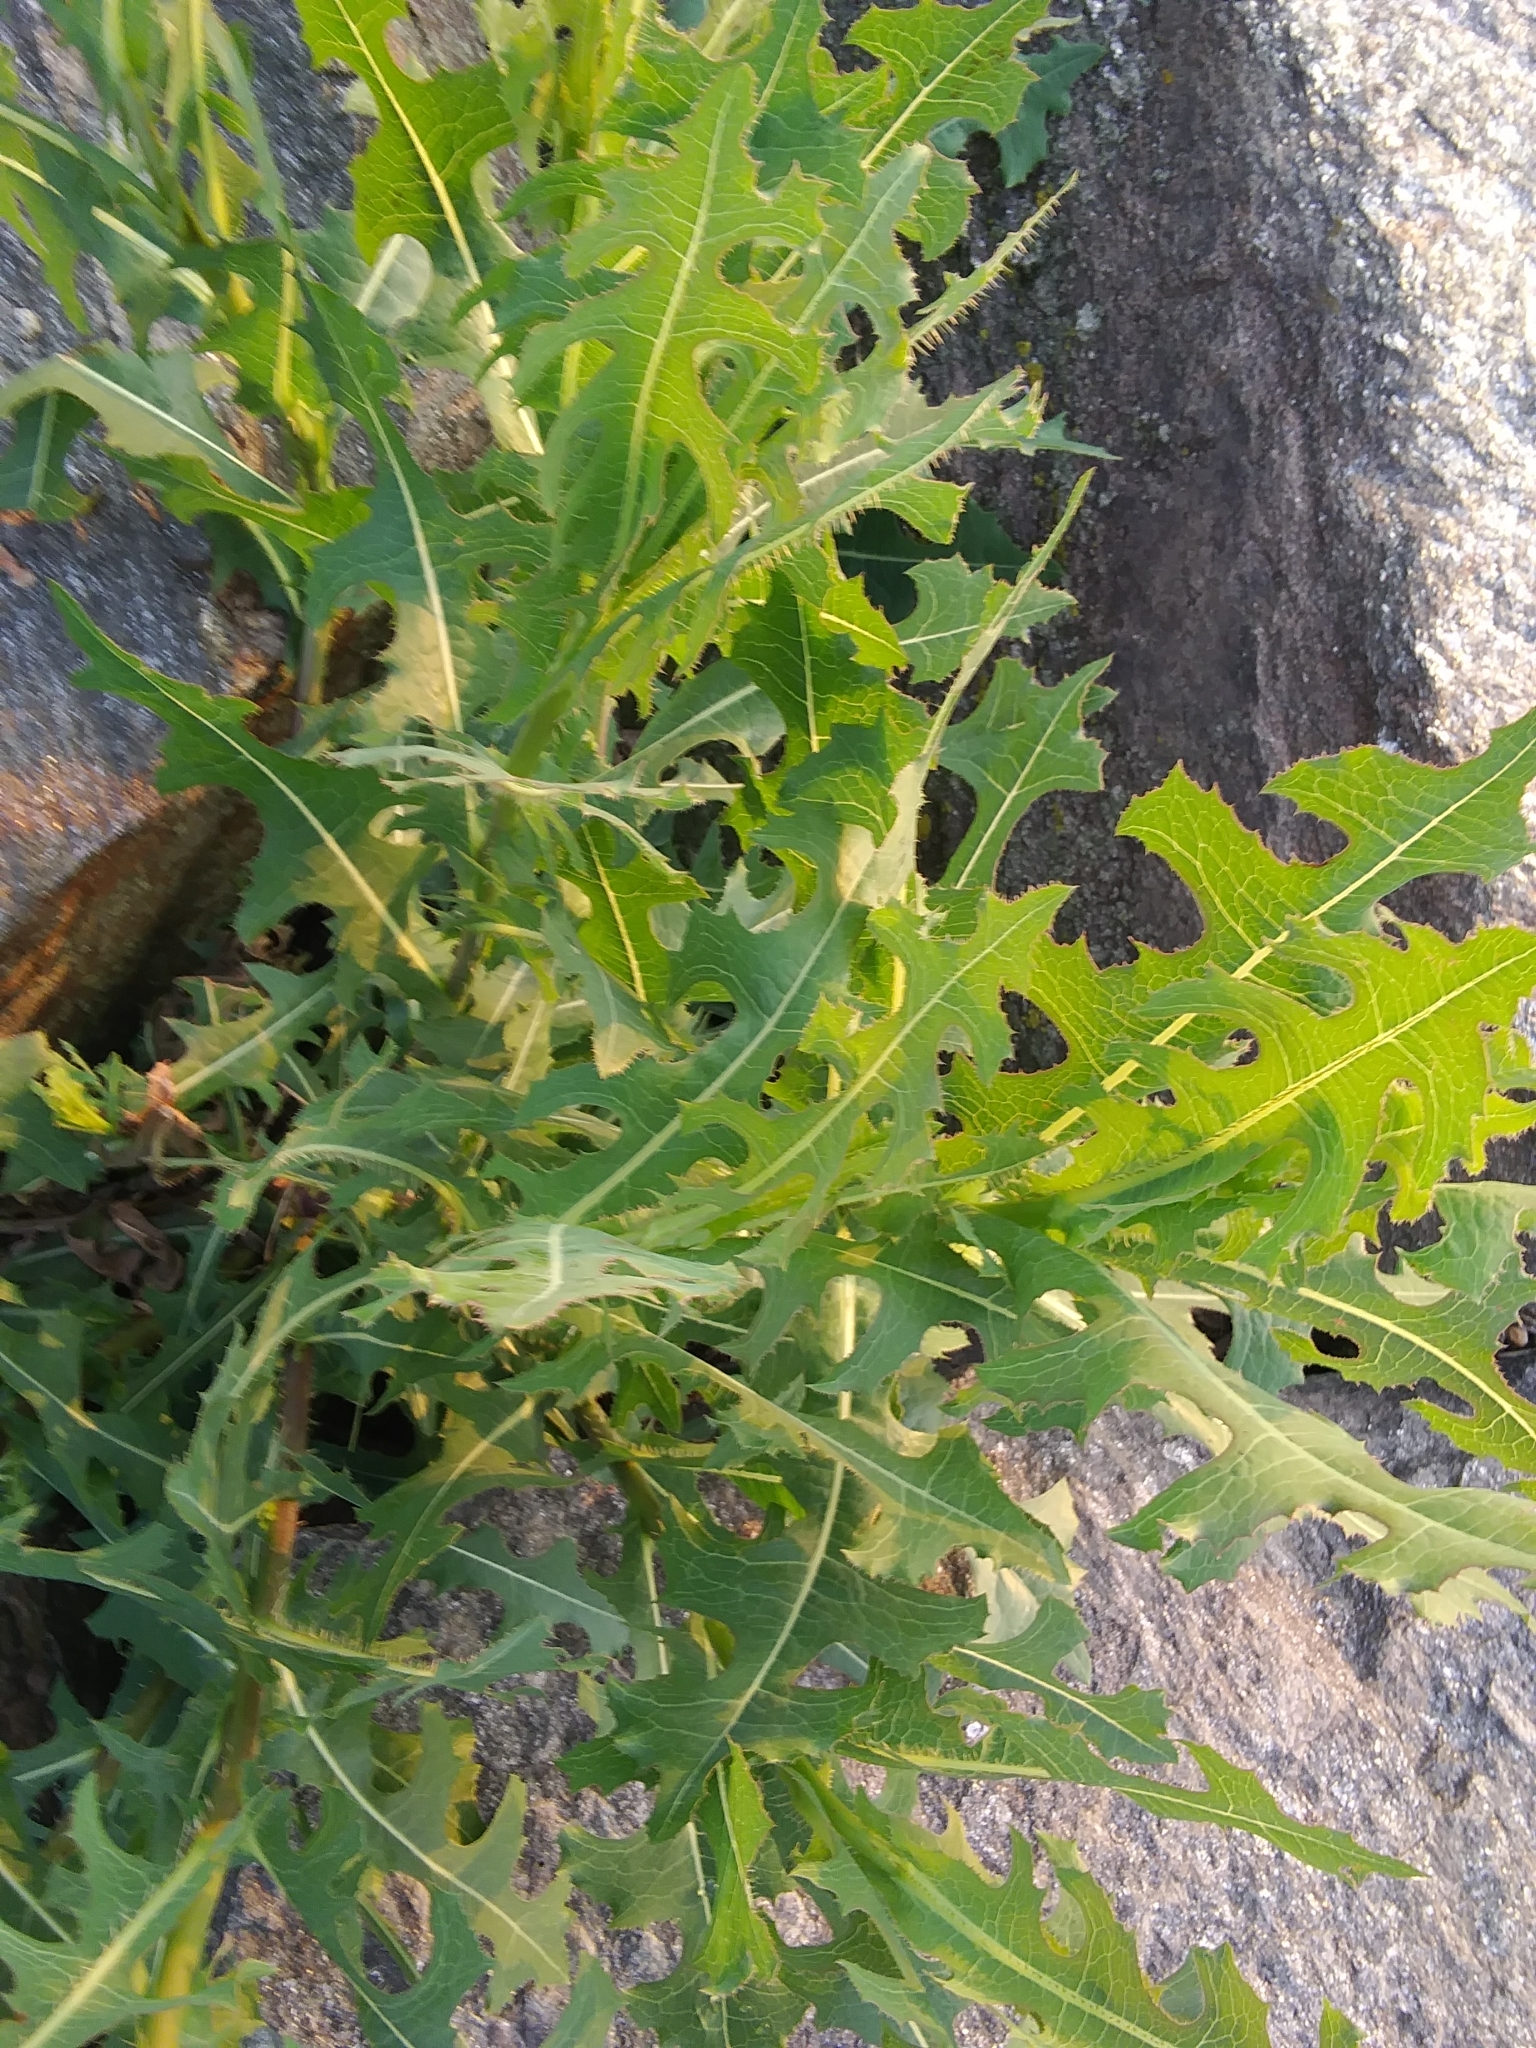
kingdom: Plantae
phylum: Tracheophyta
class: Magnoliopsida
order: Asterales
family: Asteraceae
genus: Lactuca
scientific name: Lactuca serriola
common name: Prickly lettuce
